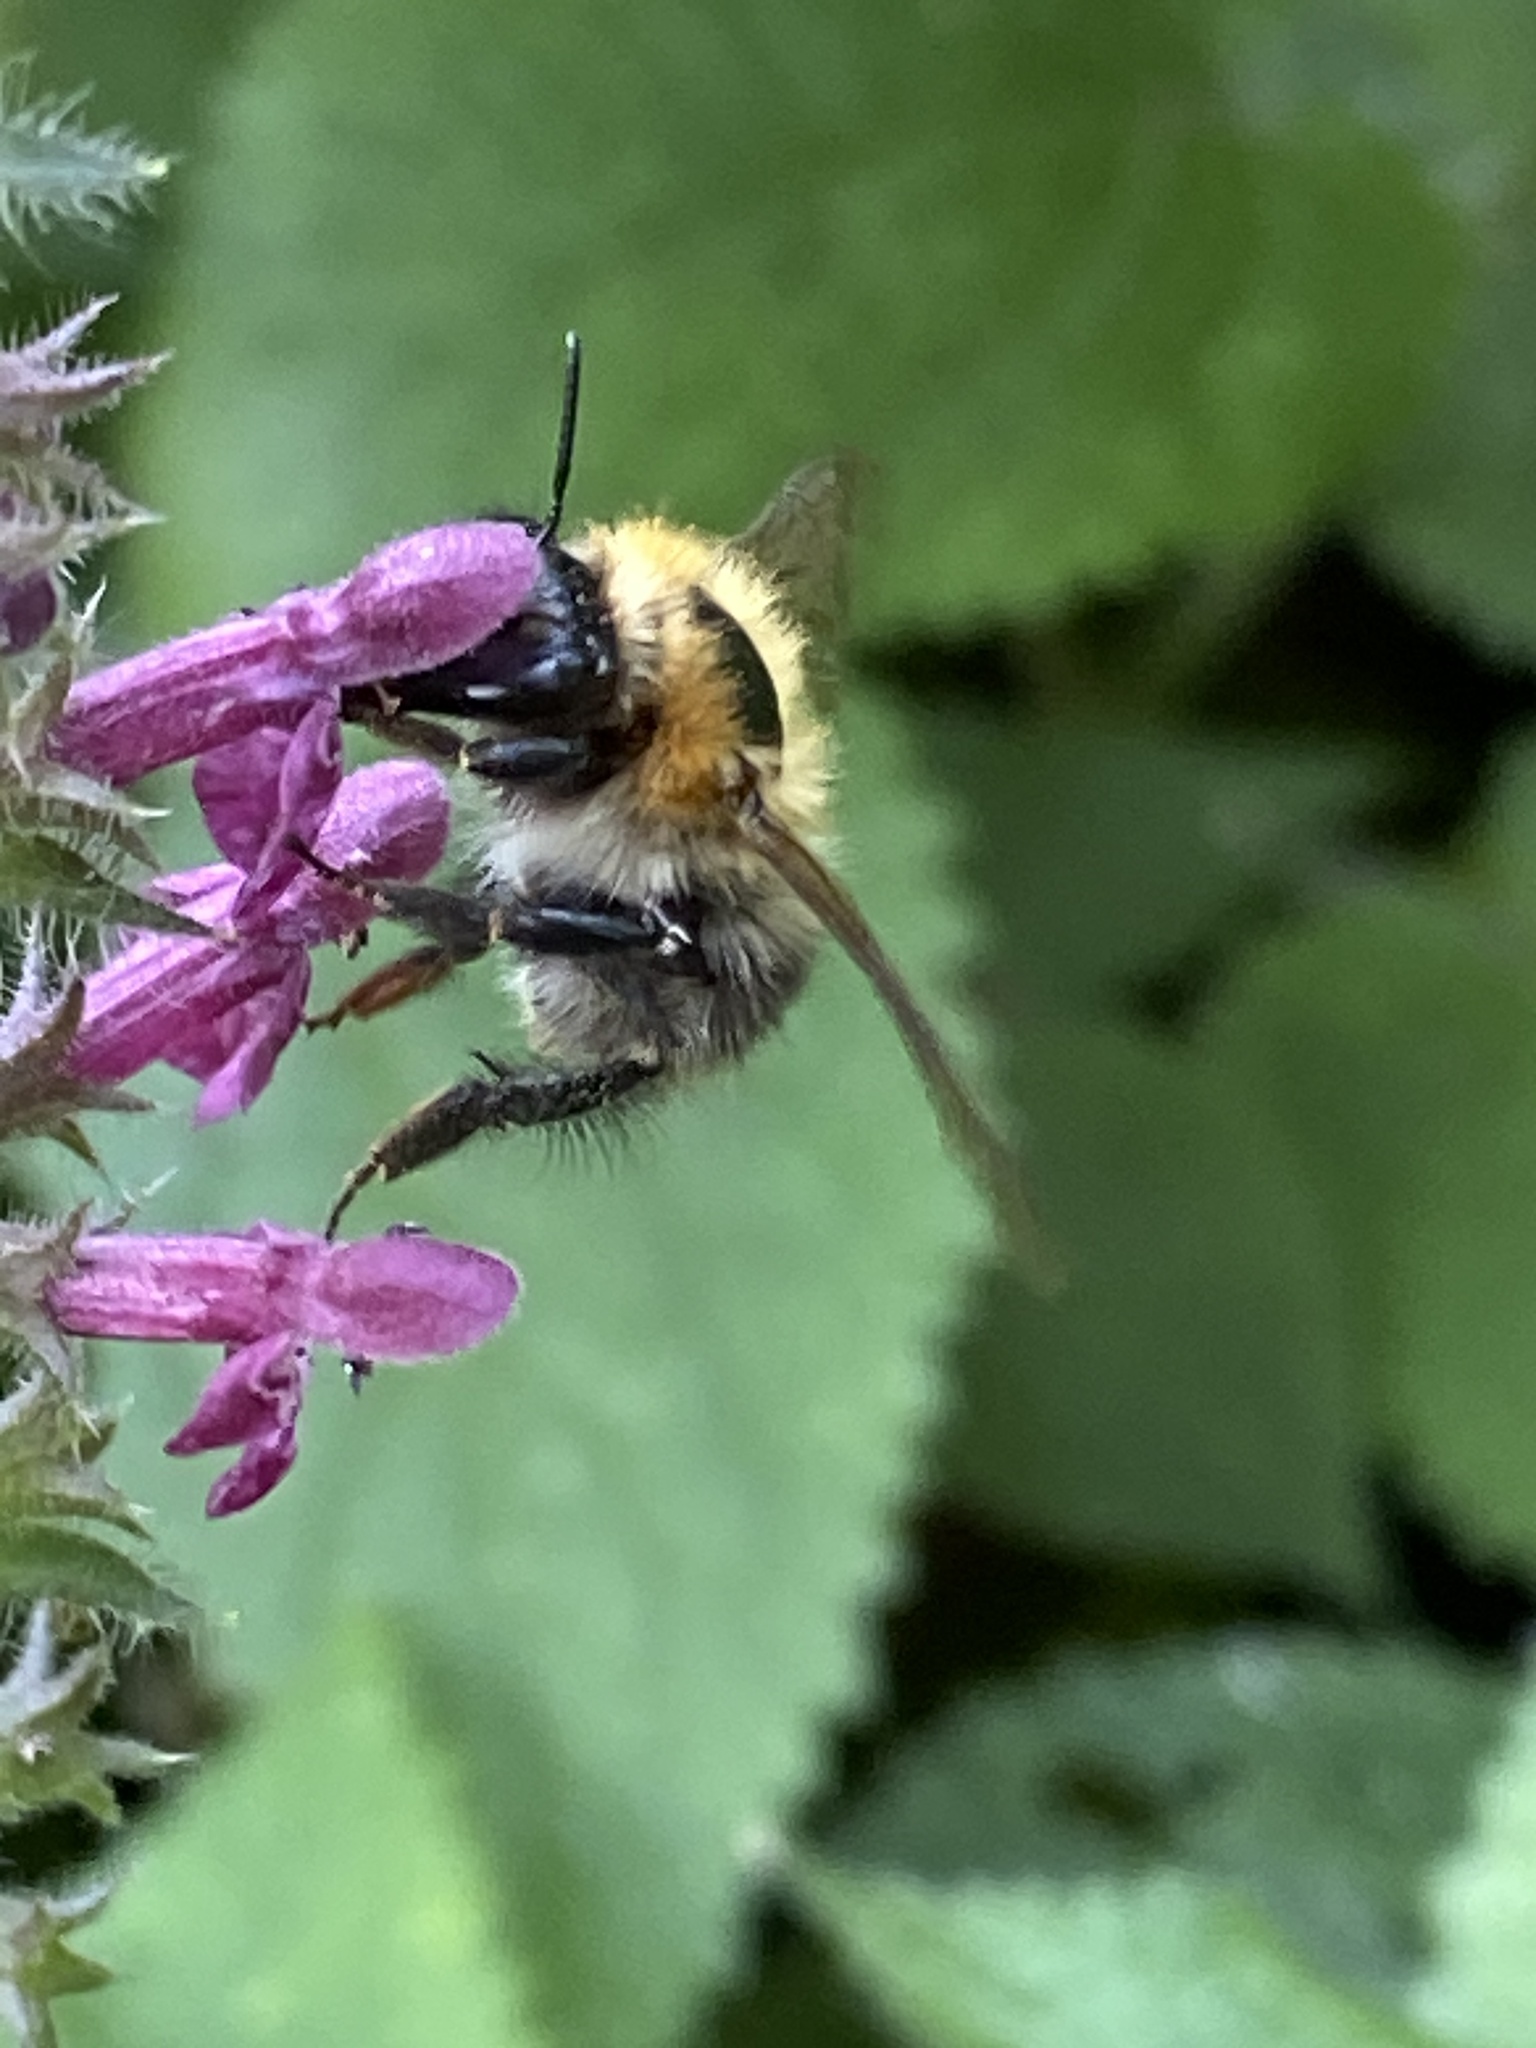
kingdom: Animalia
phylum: Arthropoda
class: Insecta
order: Hymenoptera
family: Apidae
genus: Bombus
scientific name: Bombus pascuorum
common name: Common carder bee
